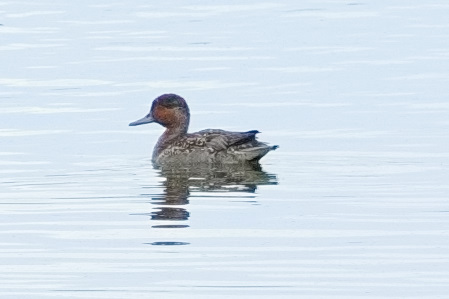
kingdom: Animalia
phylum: Chordata
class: Aves
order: Anseriformes
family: Anatidae
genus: Anas
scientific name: Anas crecca
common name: Eurasian teal
